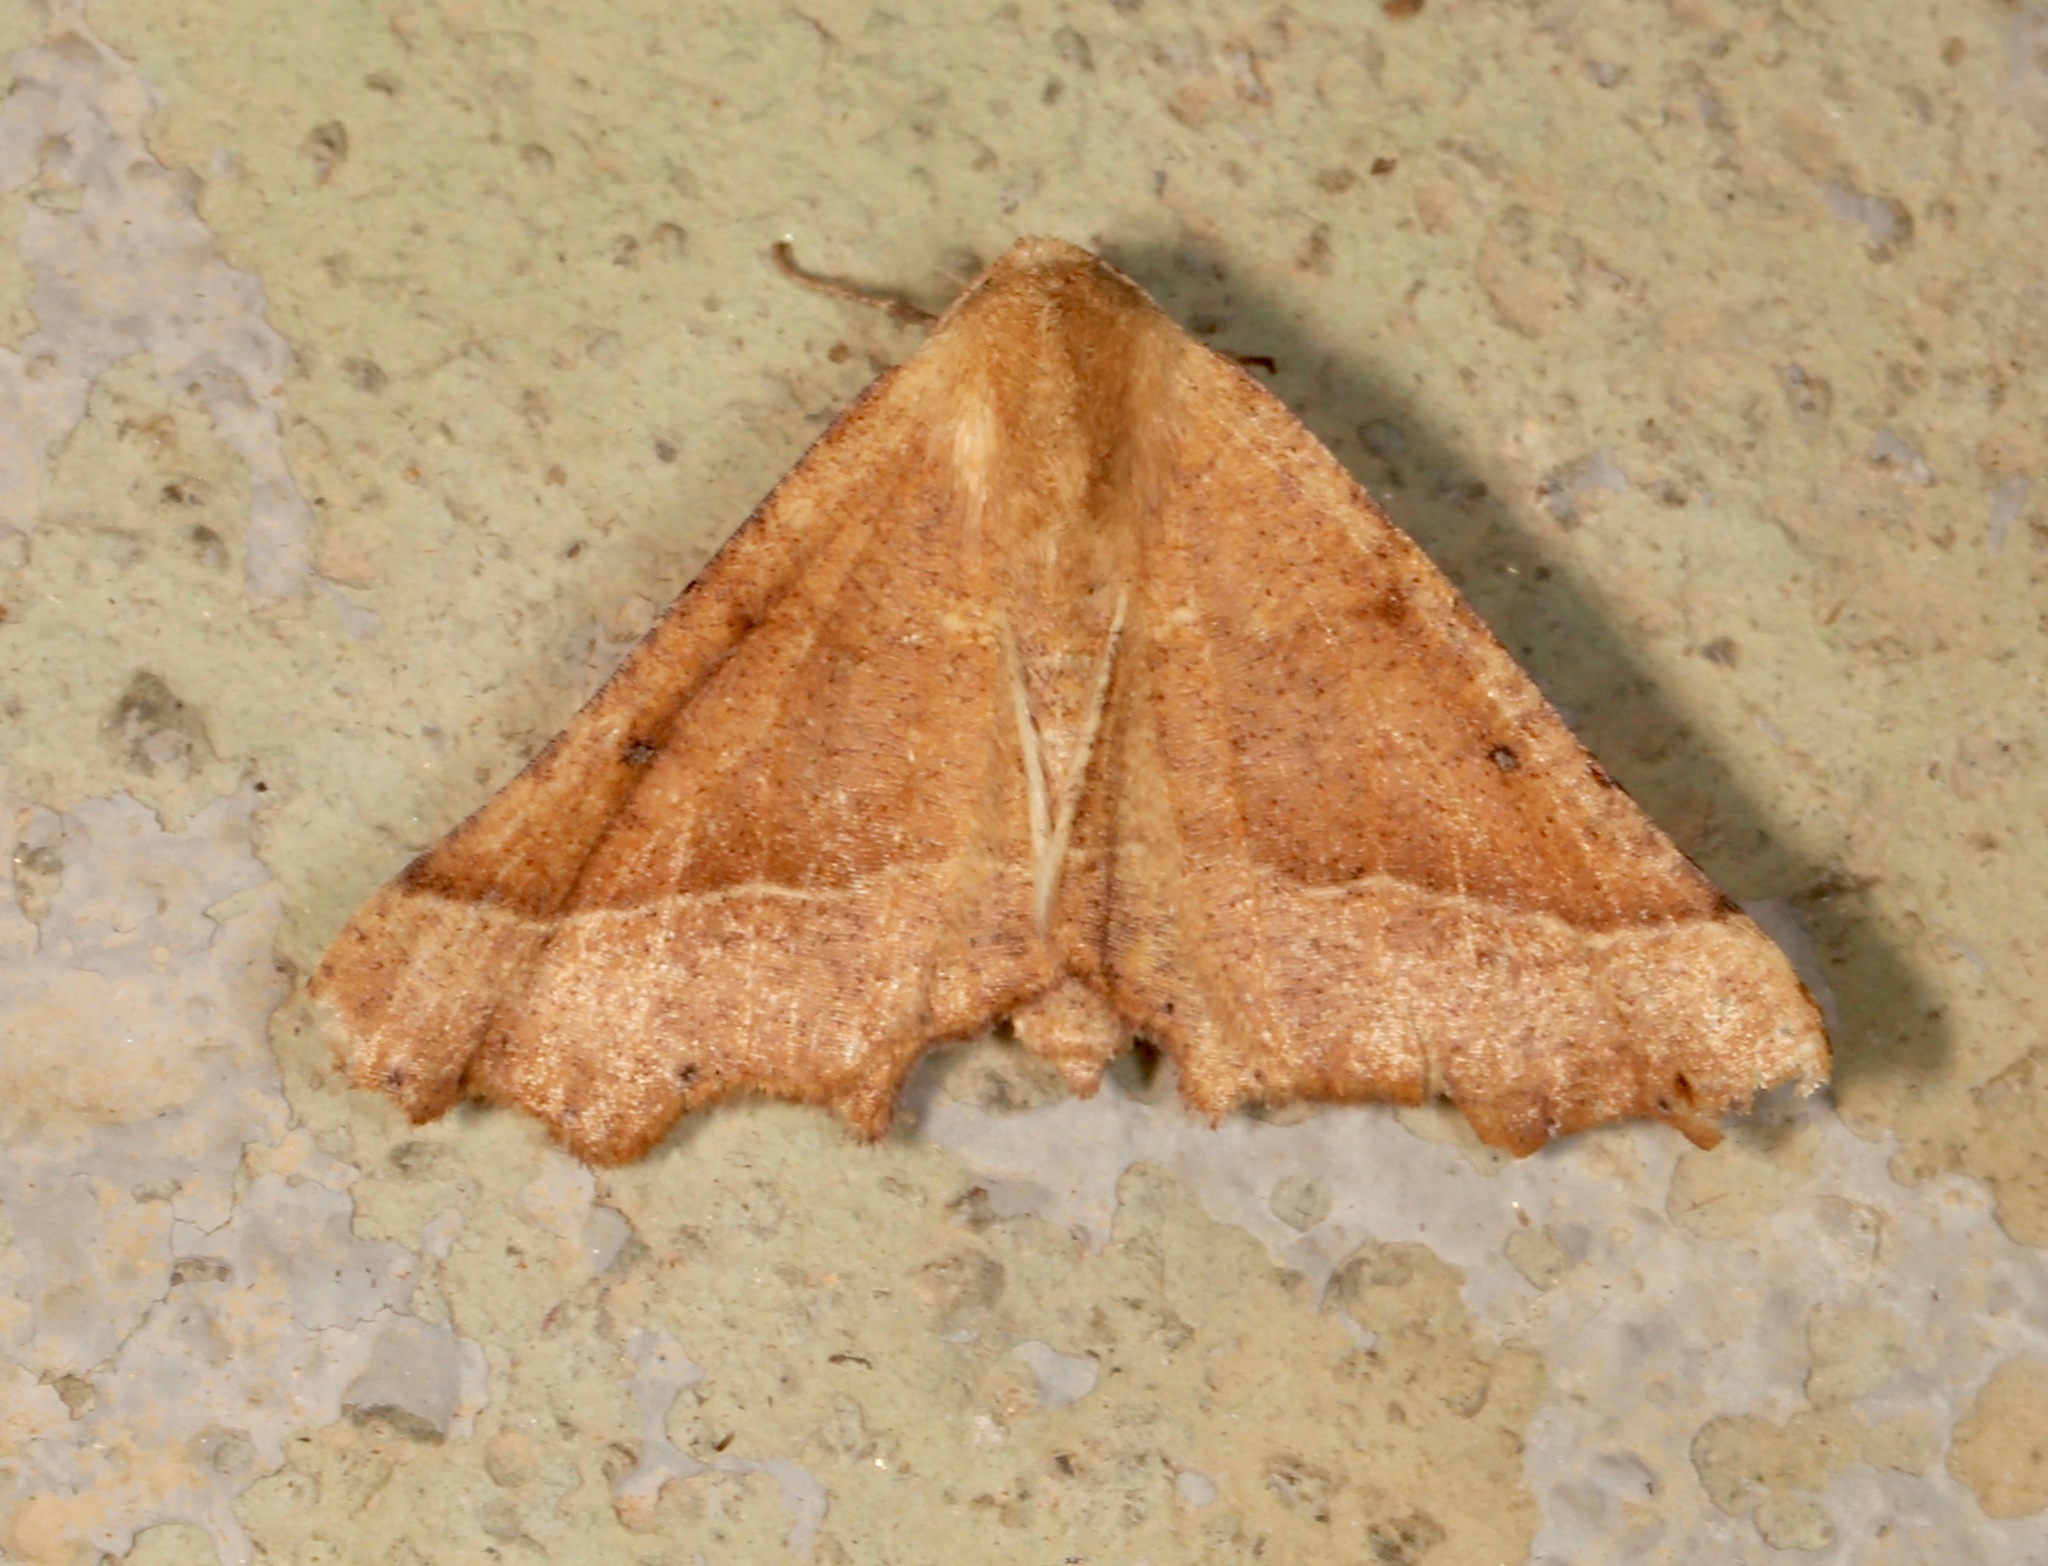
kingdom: Animalia
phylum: Arthropoda
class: Insecta
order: Lepidoptera
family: Geometridae
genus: Pero
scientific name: Pero radiosaria
